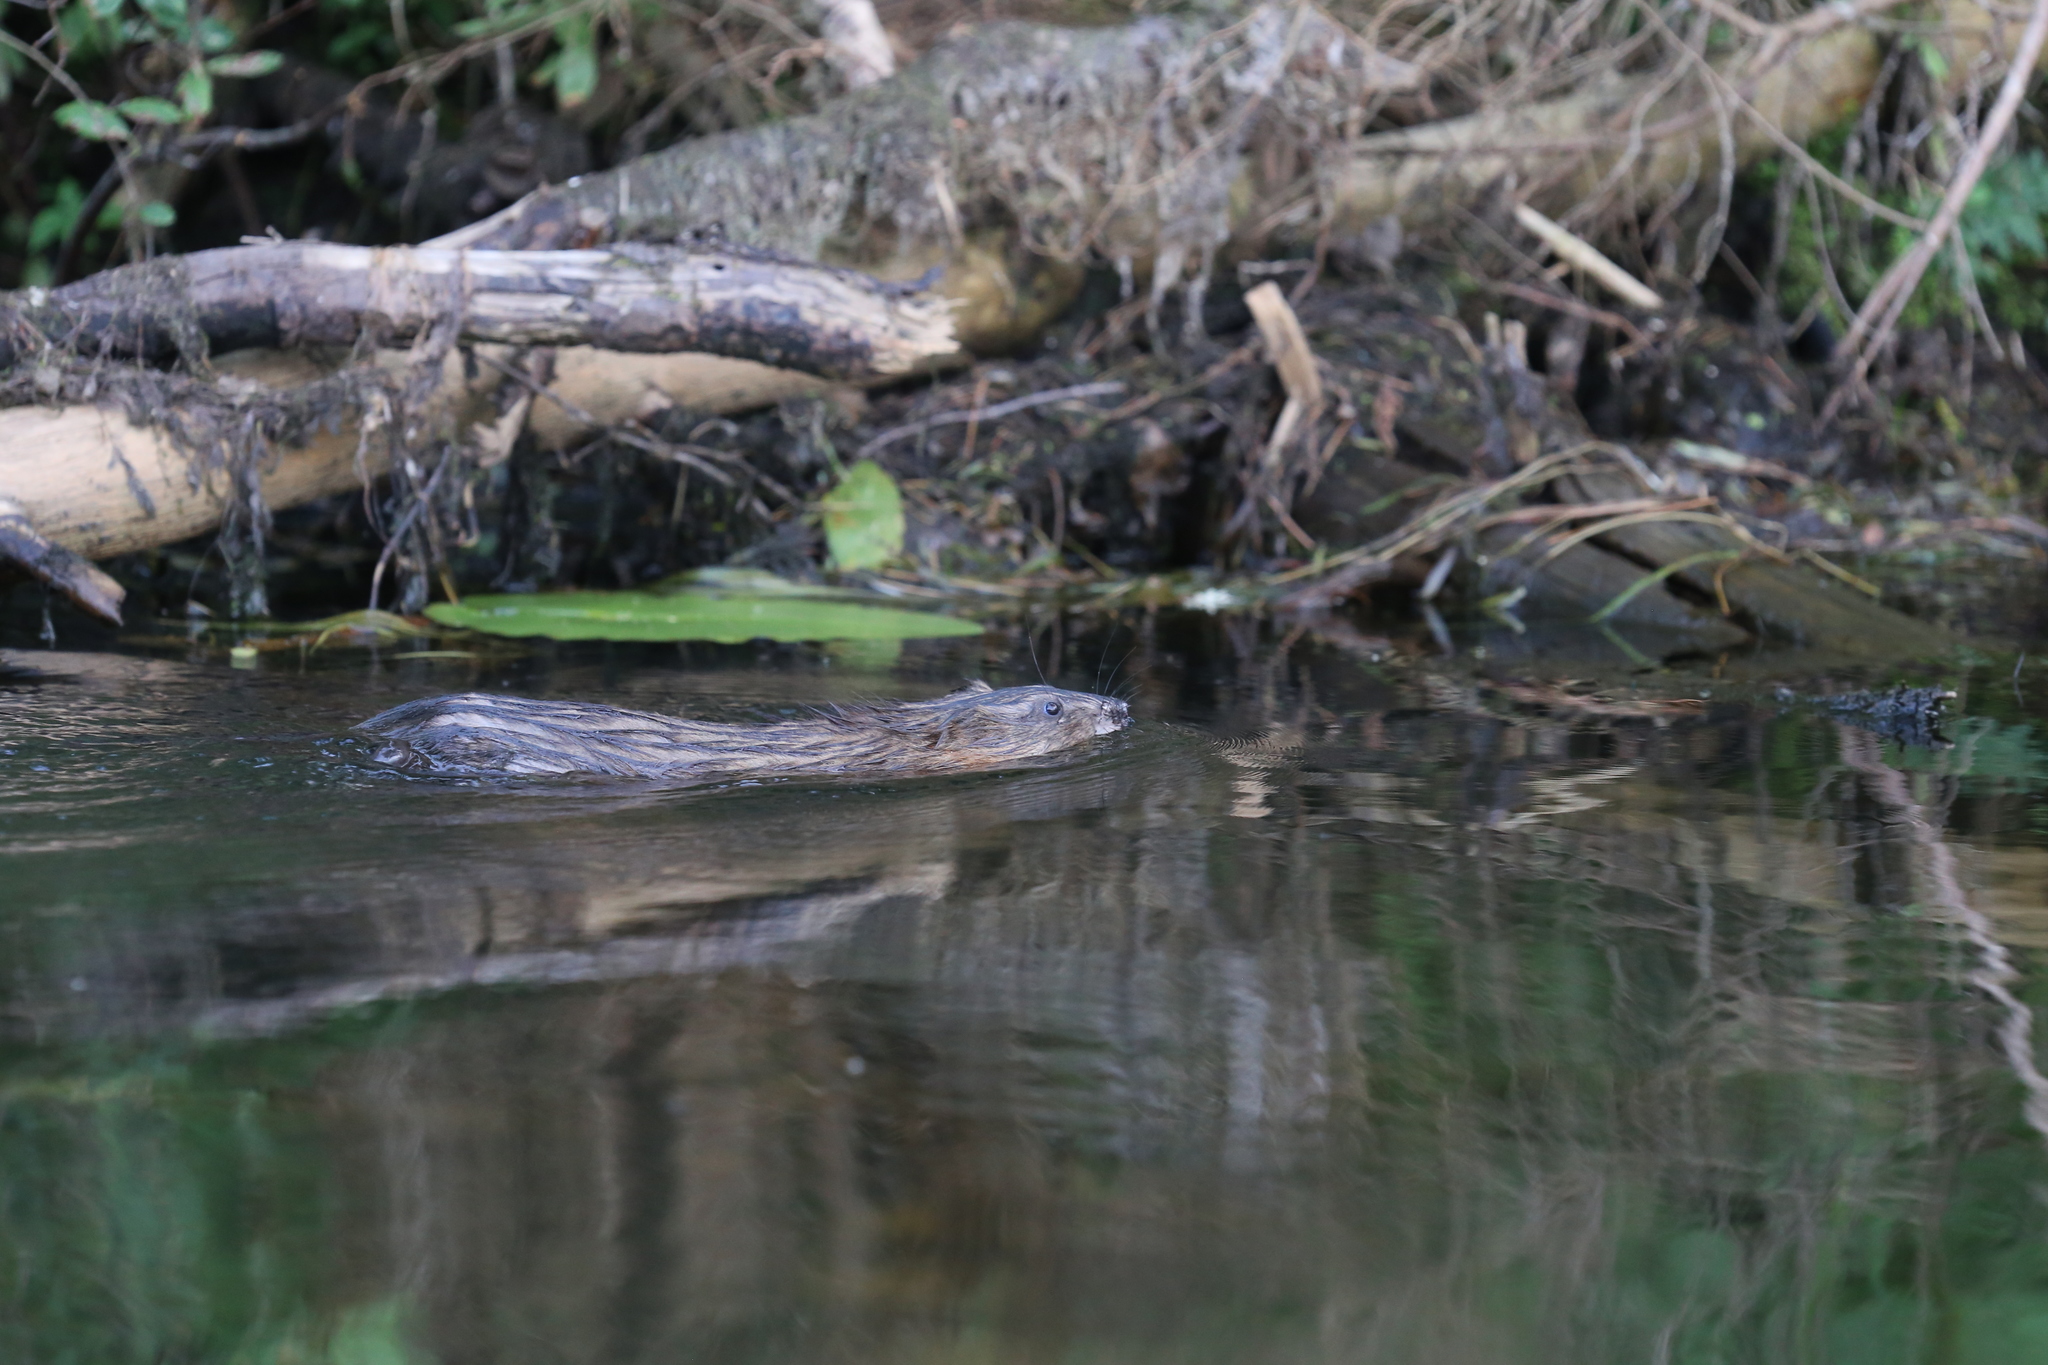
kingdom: Animalia
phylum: Chordata
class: Mammalia
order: Rodentia
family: Cricetidae
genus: Ondatra
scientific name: Ondatra zibethicus
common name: Muskrat
